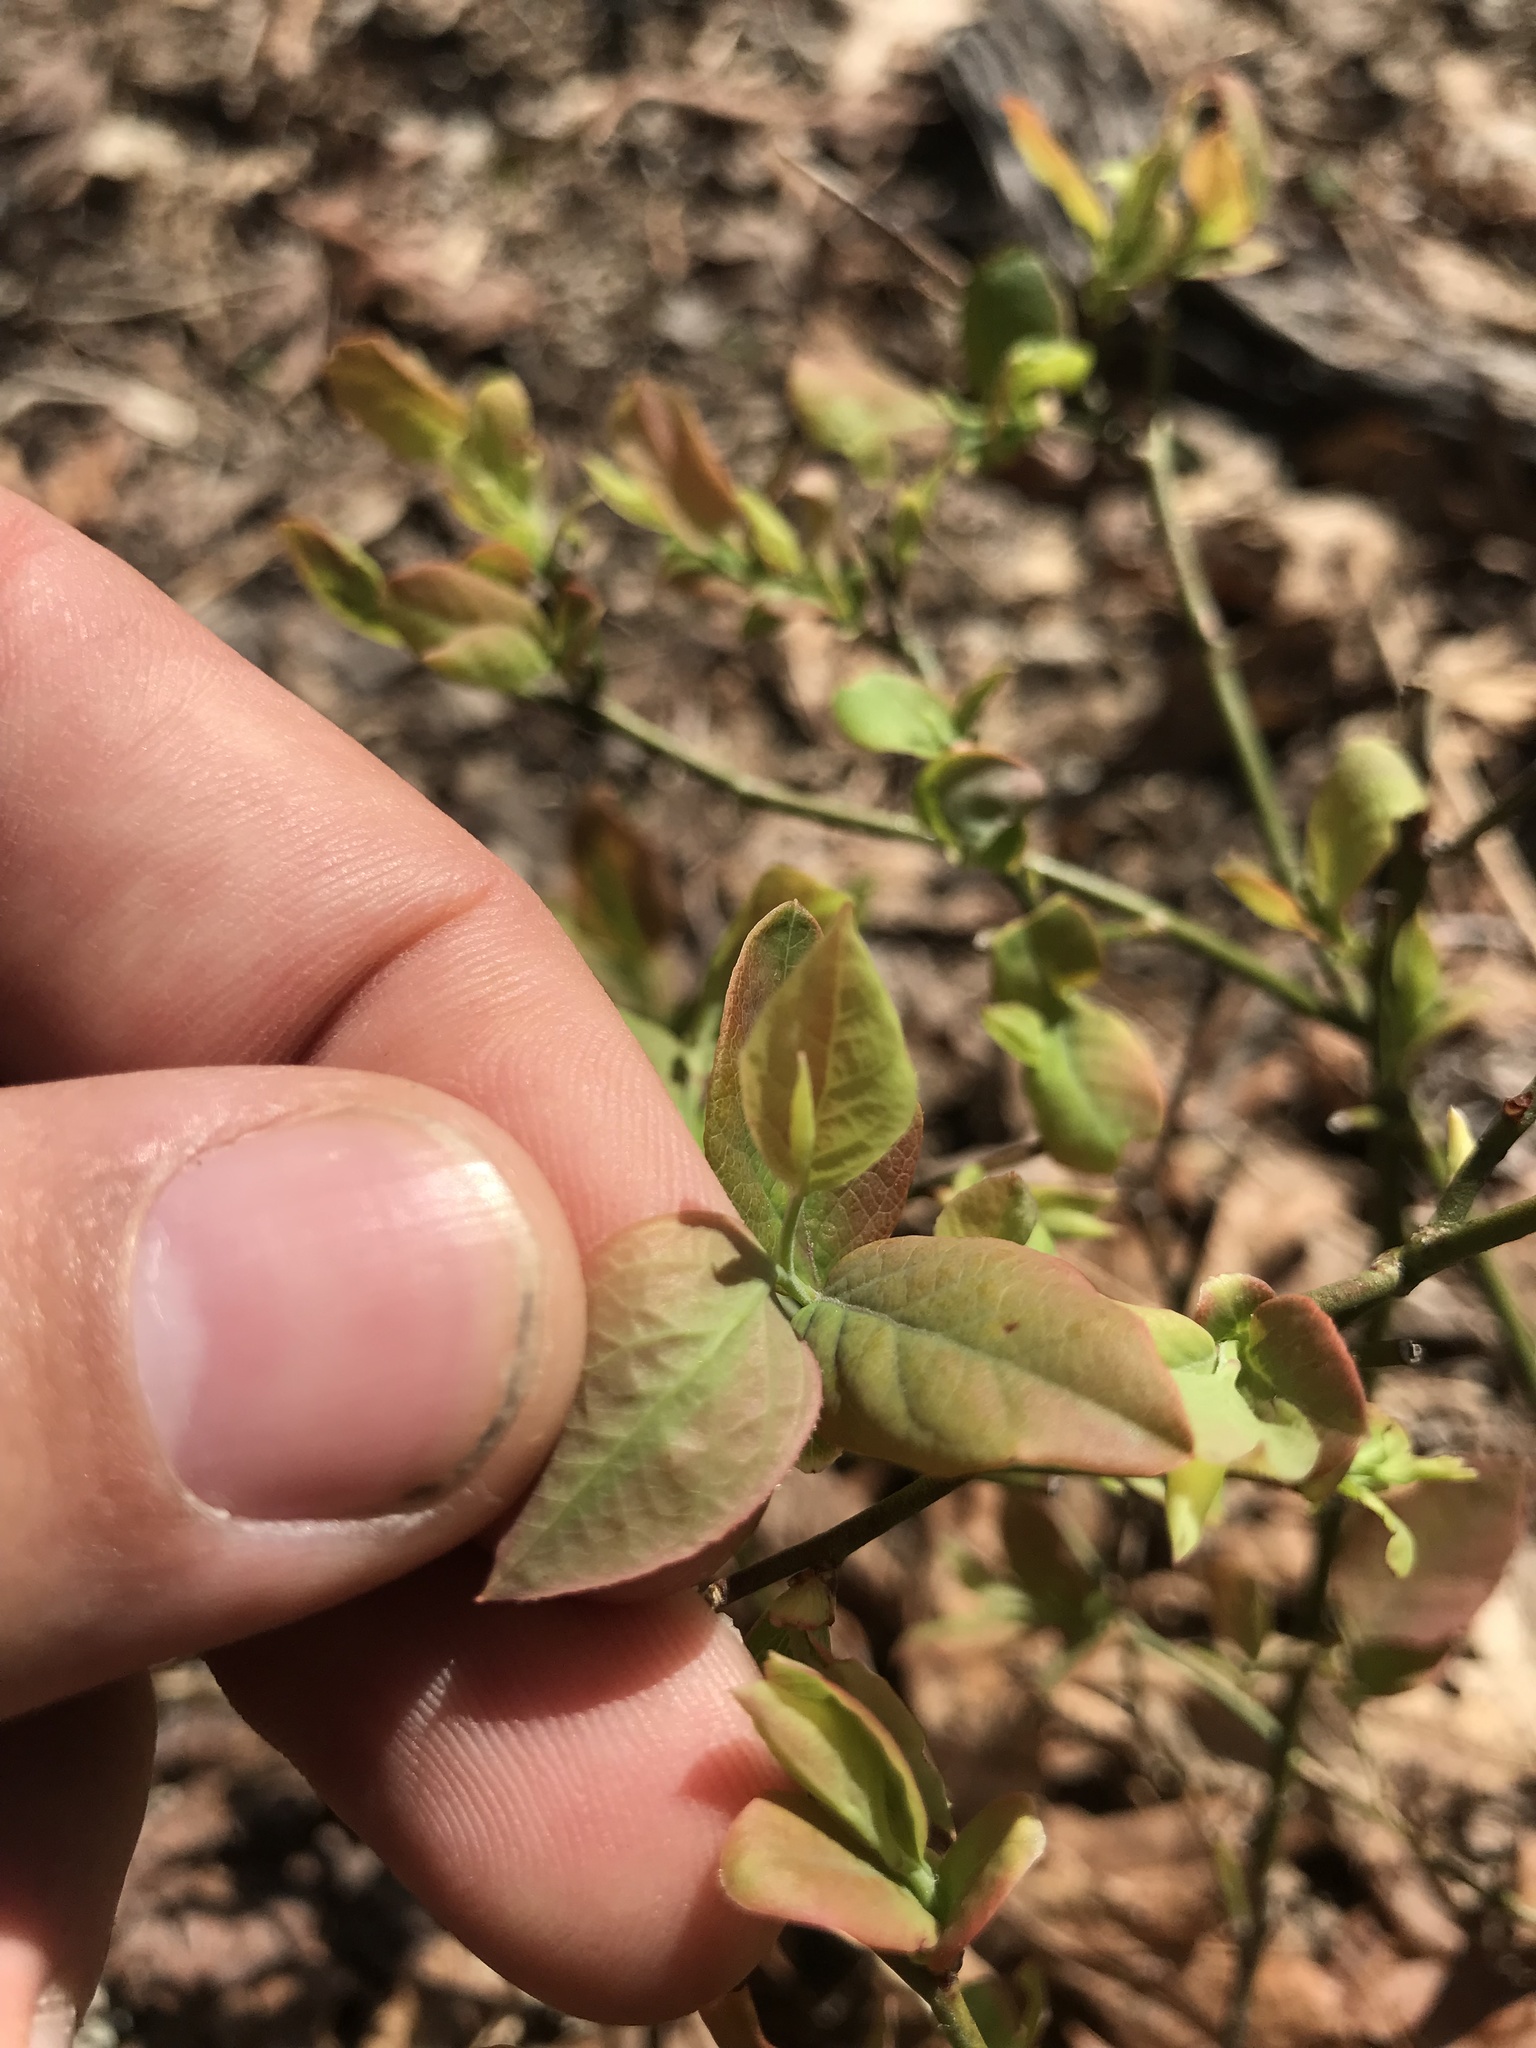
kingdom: Plantae
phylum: Tracheophyta
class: Magnoliopsida
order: Ericales
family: Ericaceae
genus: Vaccinium
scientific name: Vaccinium angustifolium
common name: Early lowbush blueberry
